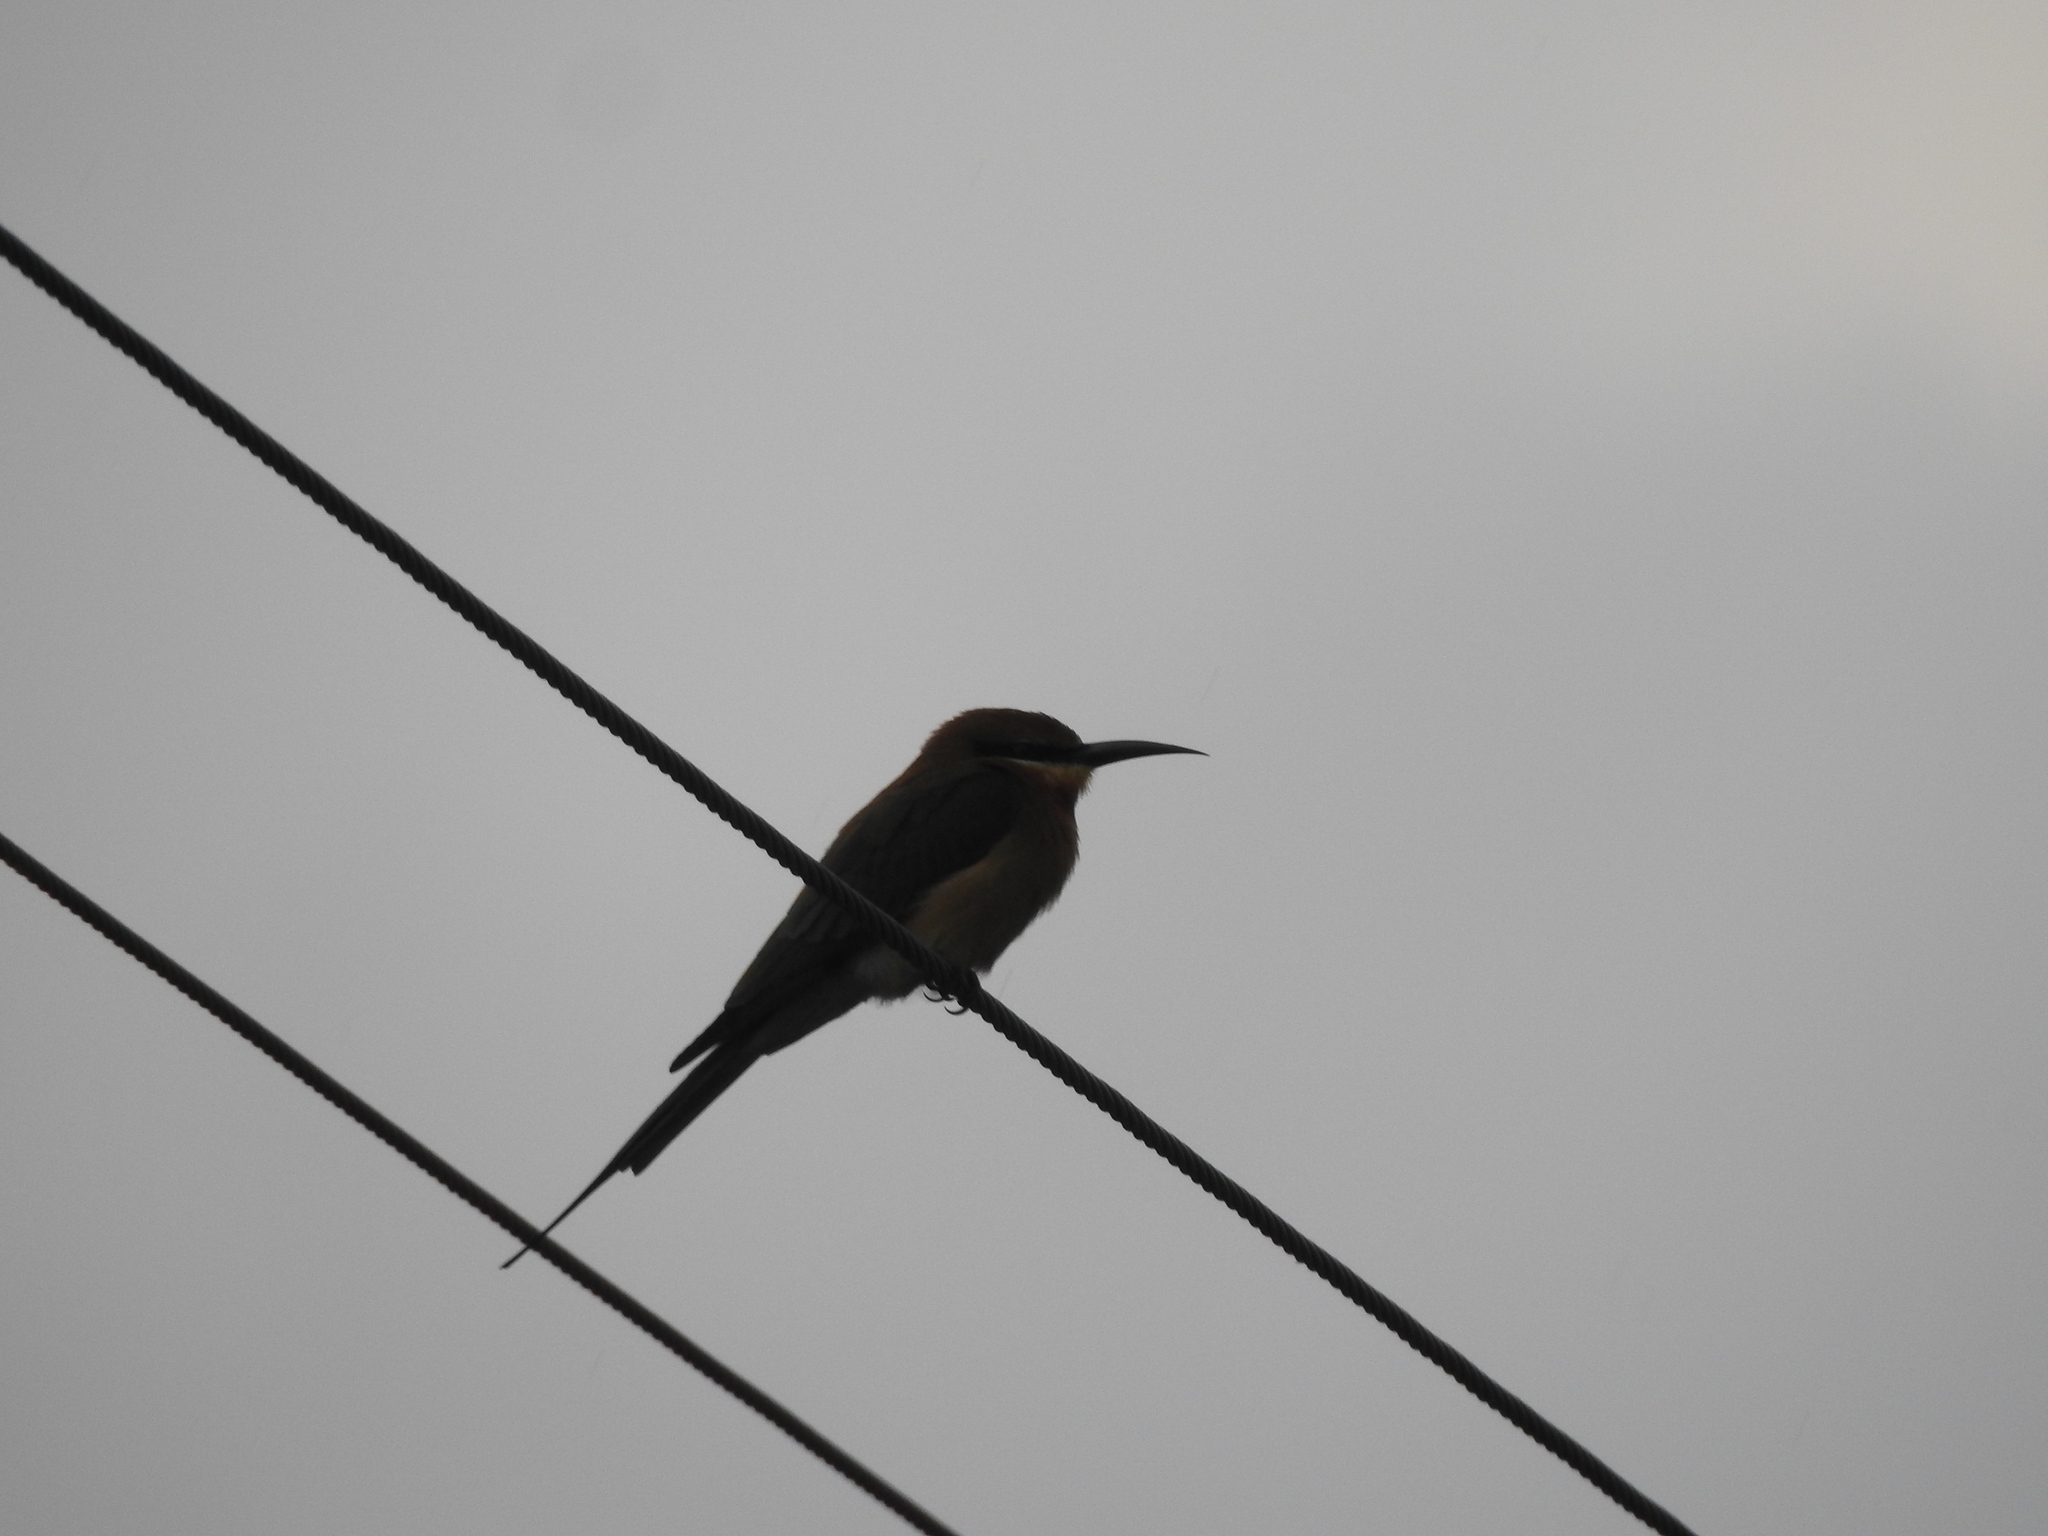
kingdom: Animalia
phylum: Chordata
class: Aves
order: Coraciiformes
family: Meropidae
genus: Merops
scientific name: Merops philippinus
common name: Blue-tailed bee-eater
